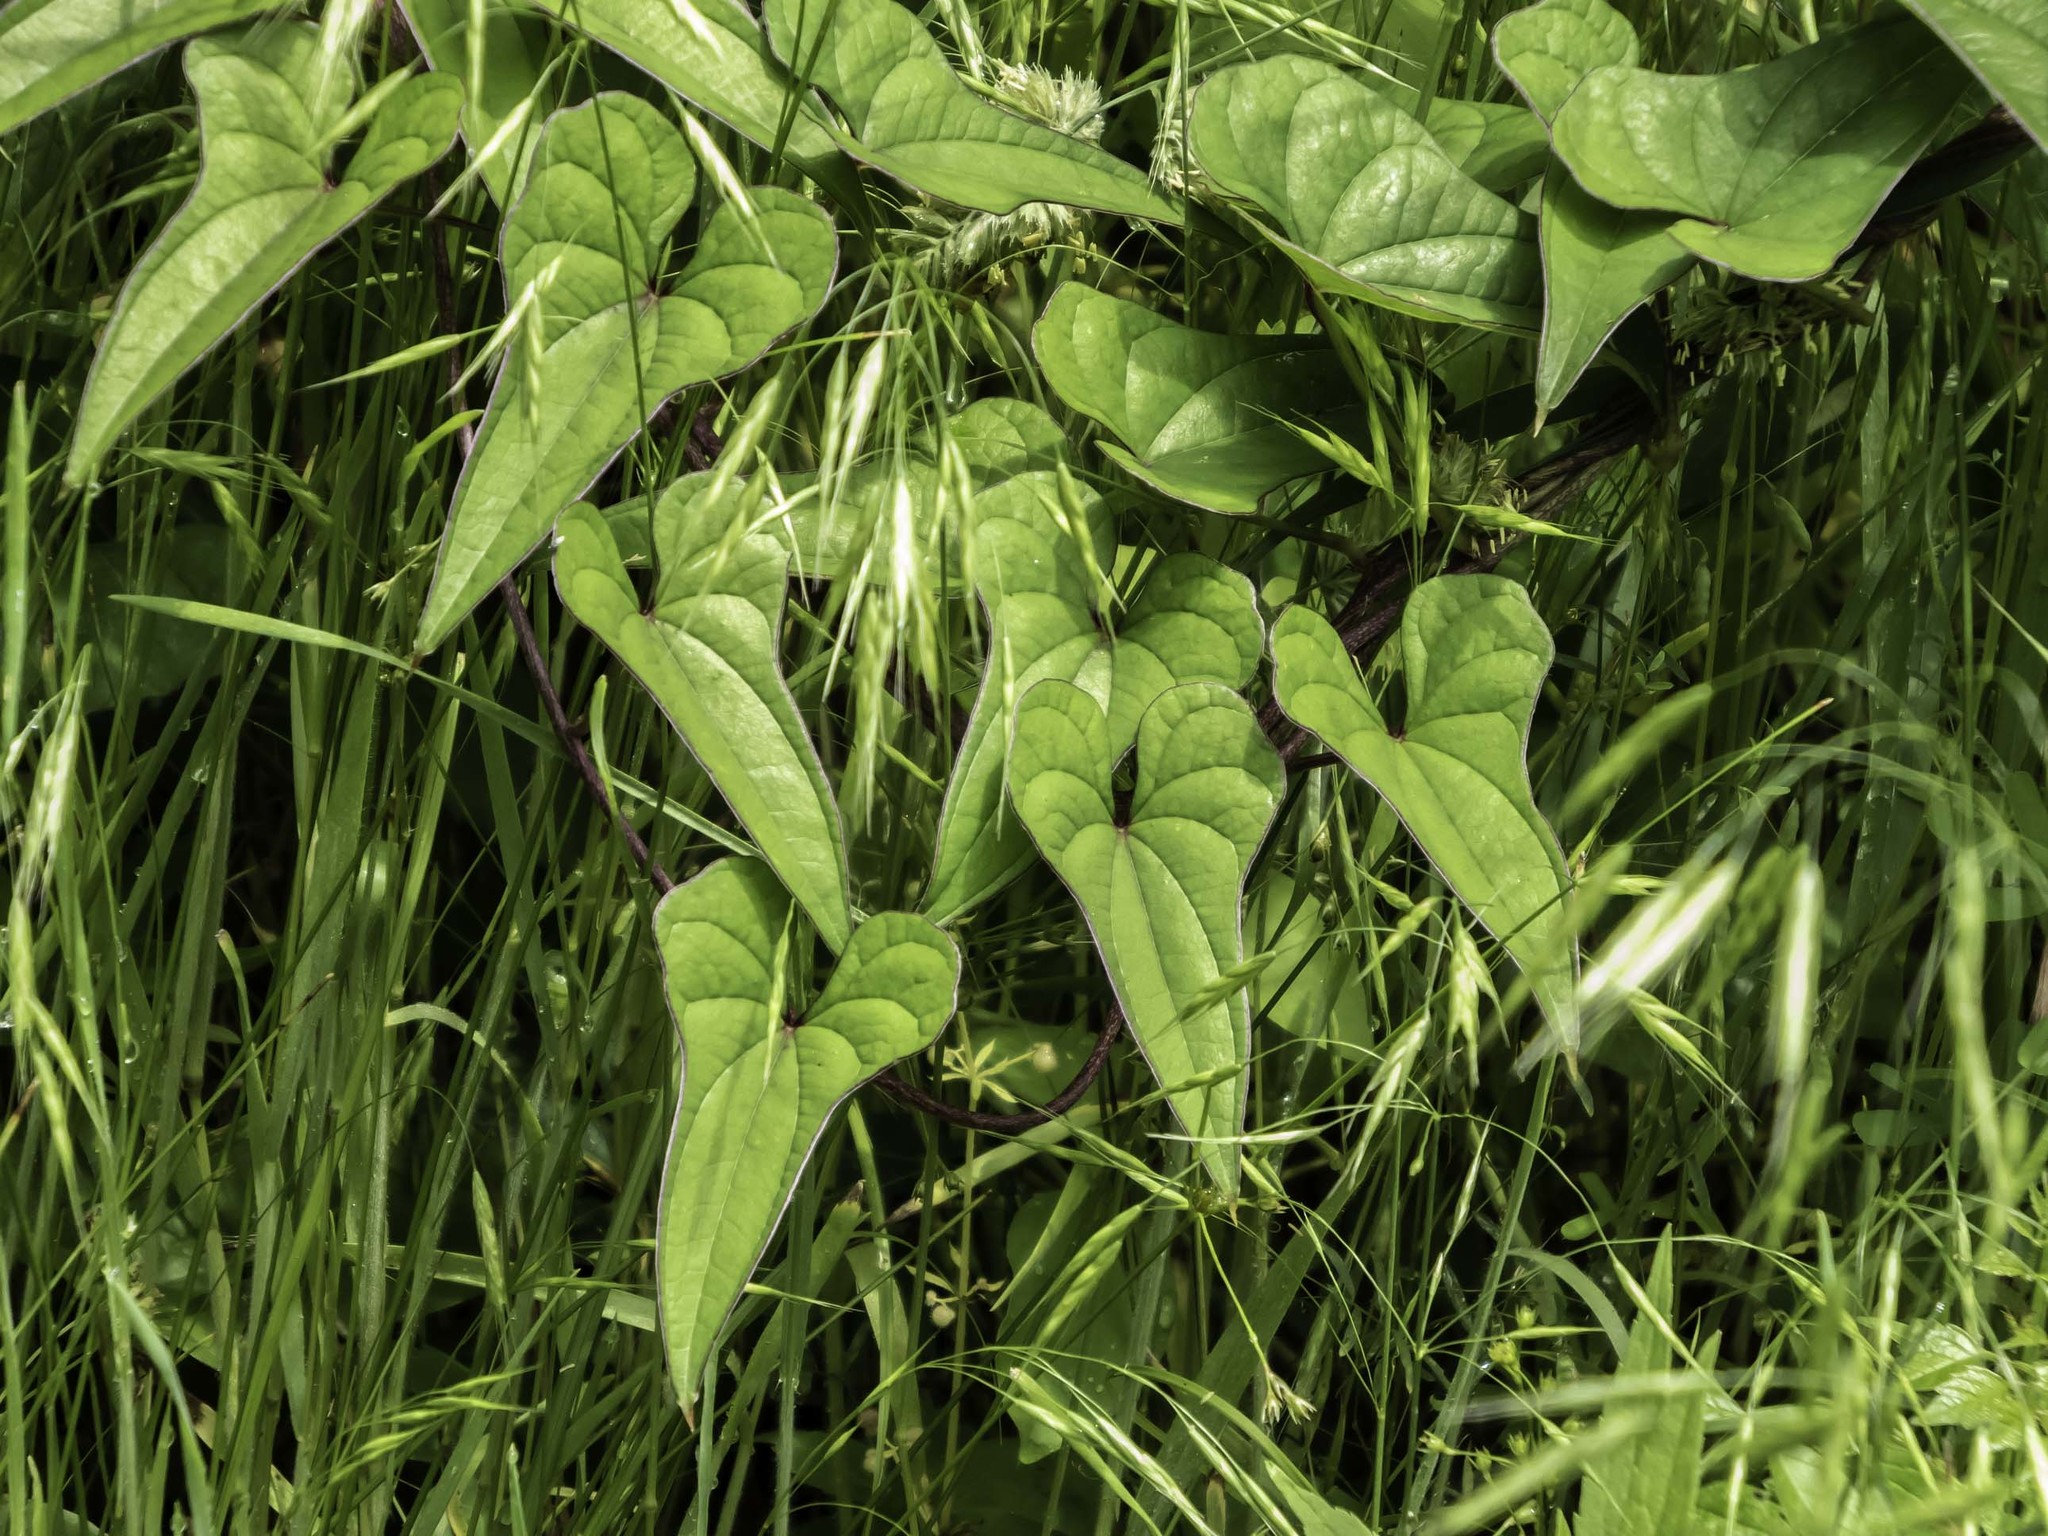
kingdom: Plantae
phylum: Tracheophyta
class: Liliopsida
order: Dioscoreales
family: Dioscoreaceae
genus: Dioscorea
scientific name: Dioscorea polystachya
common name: Chinese yam
